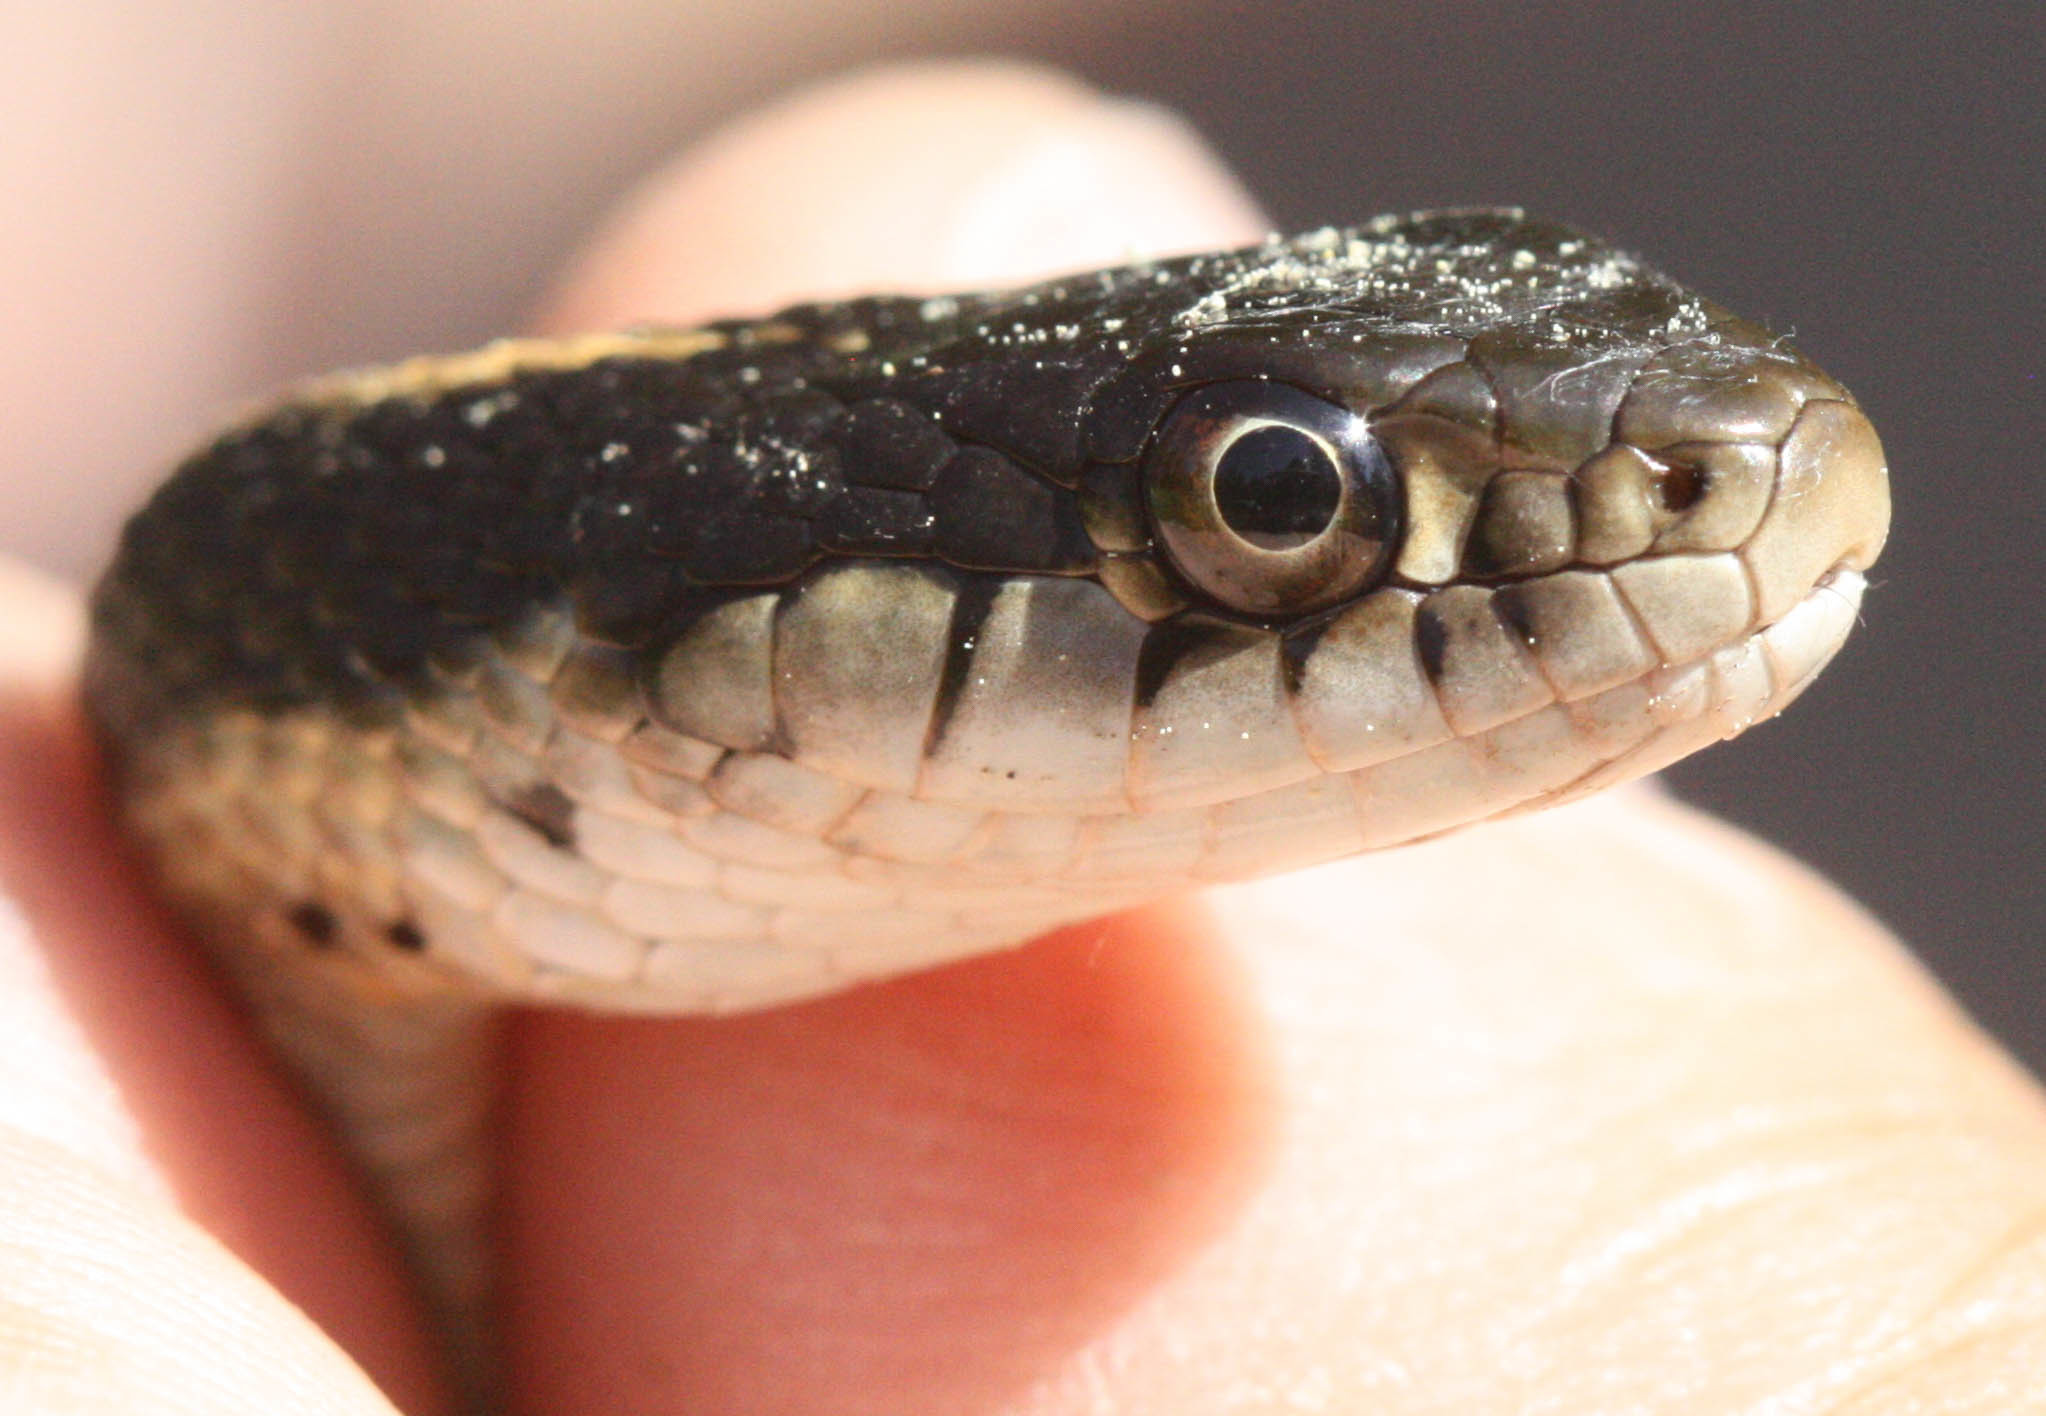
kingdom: Animalia
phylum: Chordata
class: Squamata
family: Colubridae
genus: Thamnophis
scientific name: Thamnophis elegans
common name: Western terrestrial garter snake
